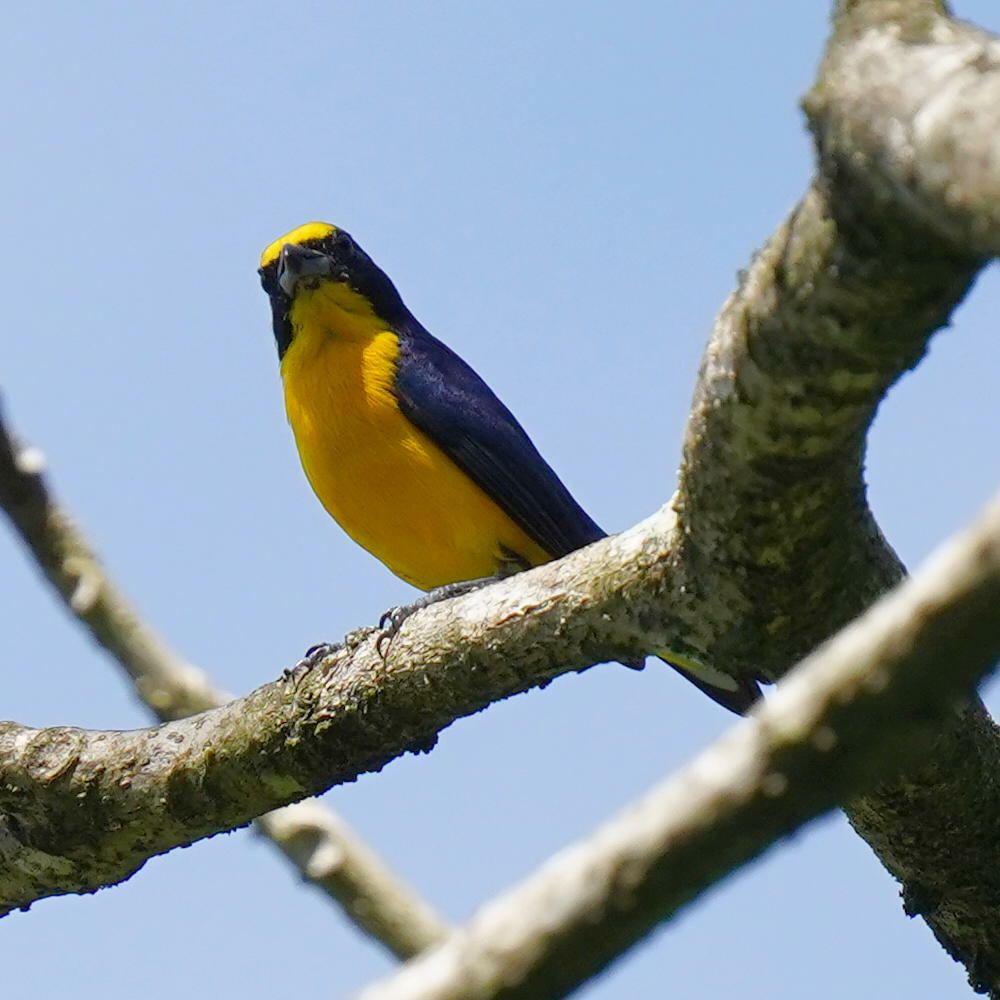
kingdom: Animalia
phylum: Chordata
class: Aves
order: Passeriformes
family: Fringillidae
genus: Euphonia
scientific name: Euphonia laniirostris
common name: Thick-billed euphonia
